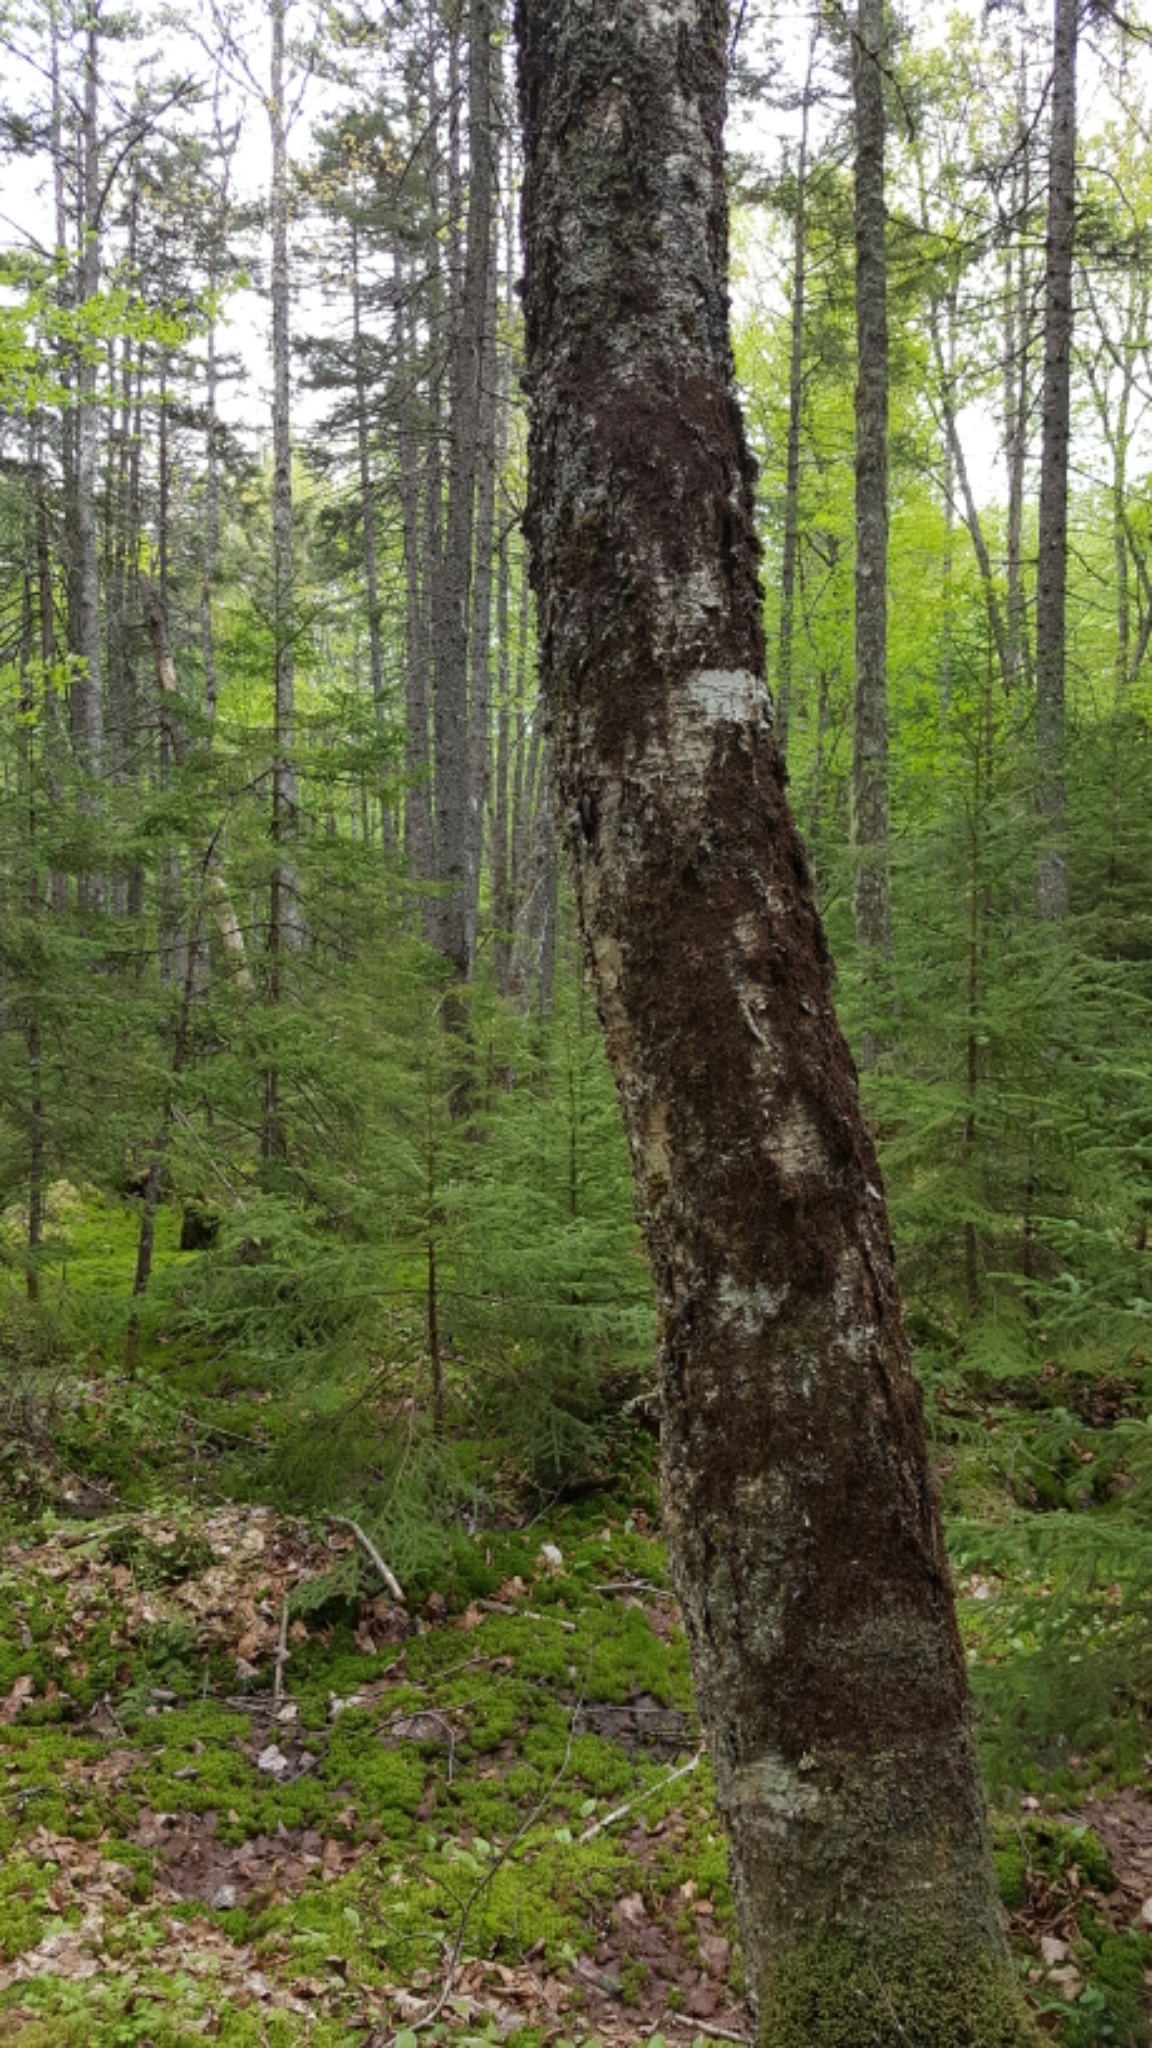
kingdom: Plantae
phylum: Tracheophyta
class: Magnoliopsida
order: Fagales
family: Betulaceae
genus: Betula
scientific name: Betula alleghaniensis
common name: Yellow birch
